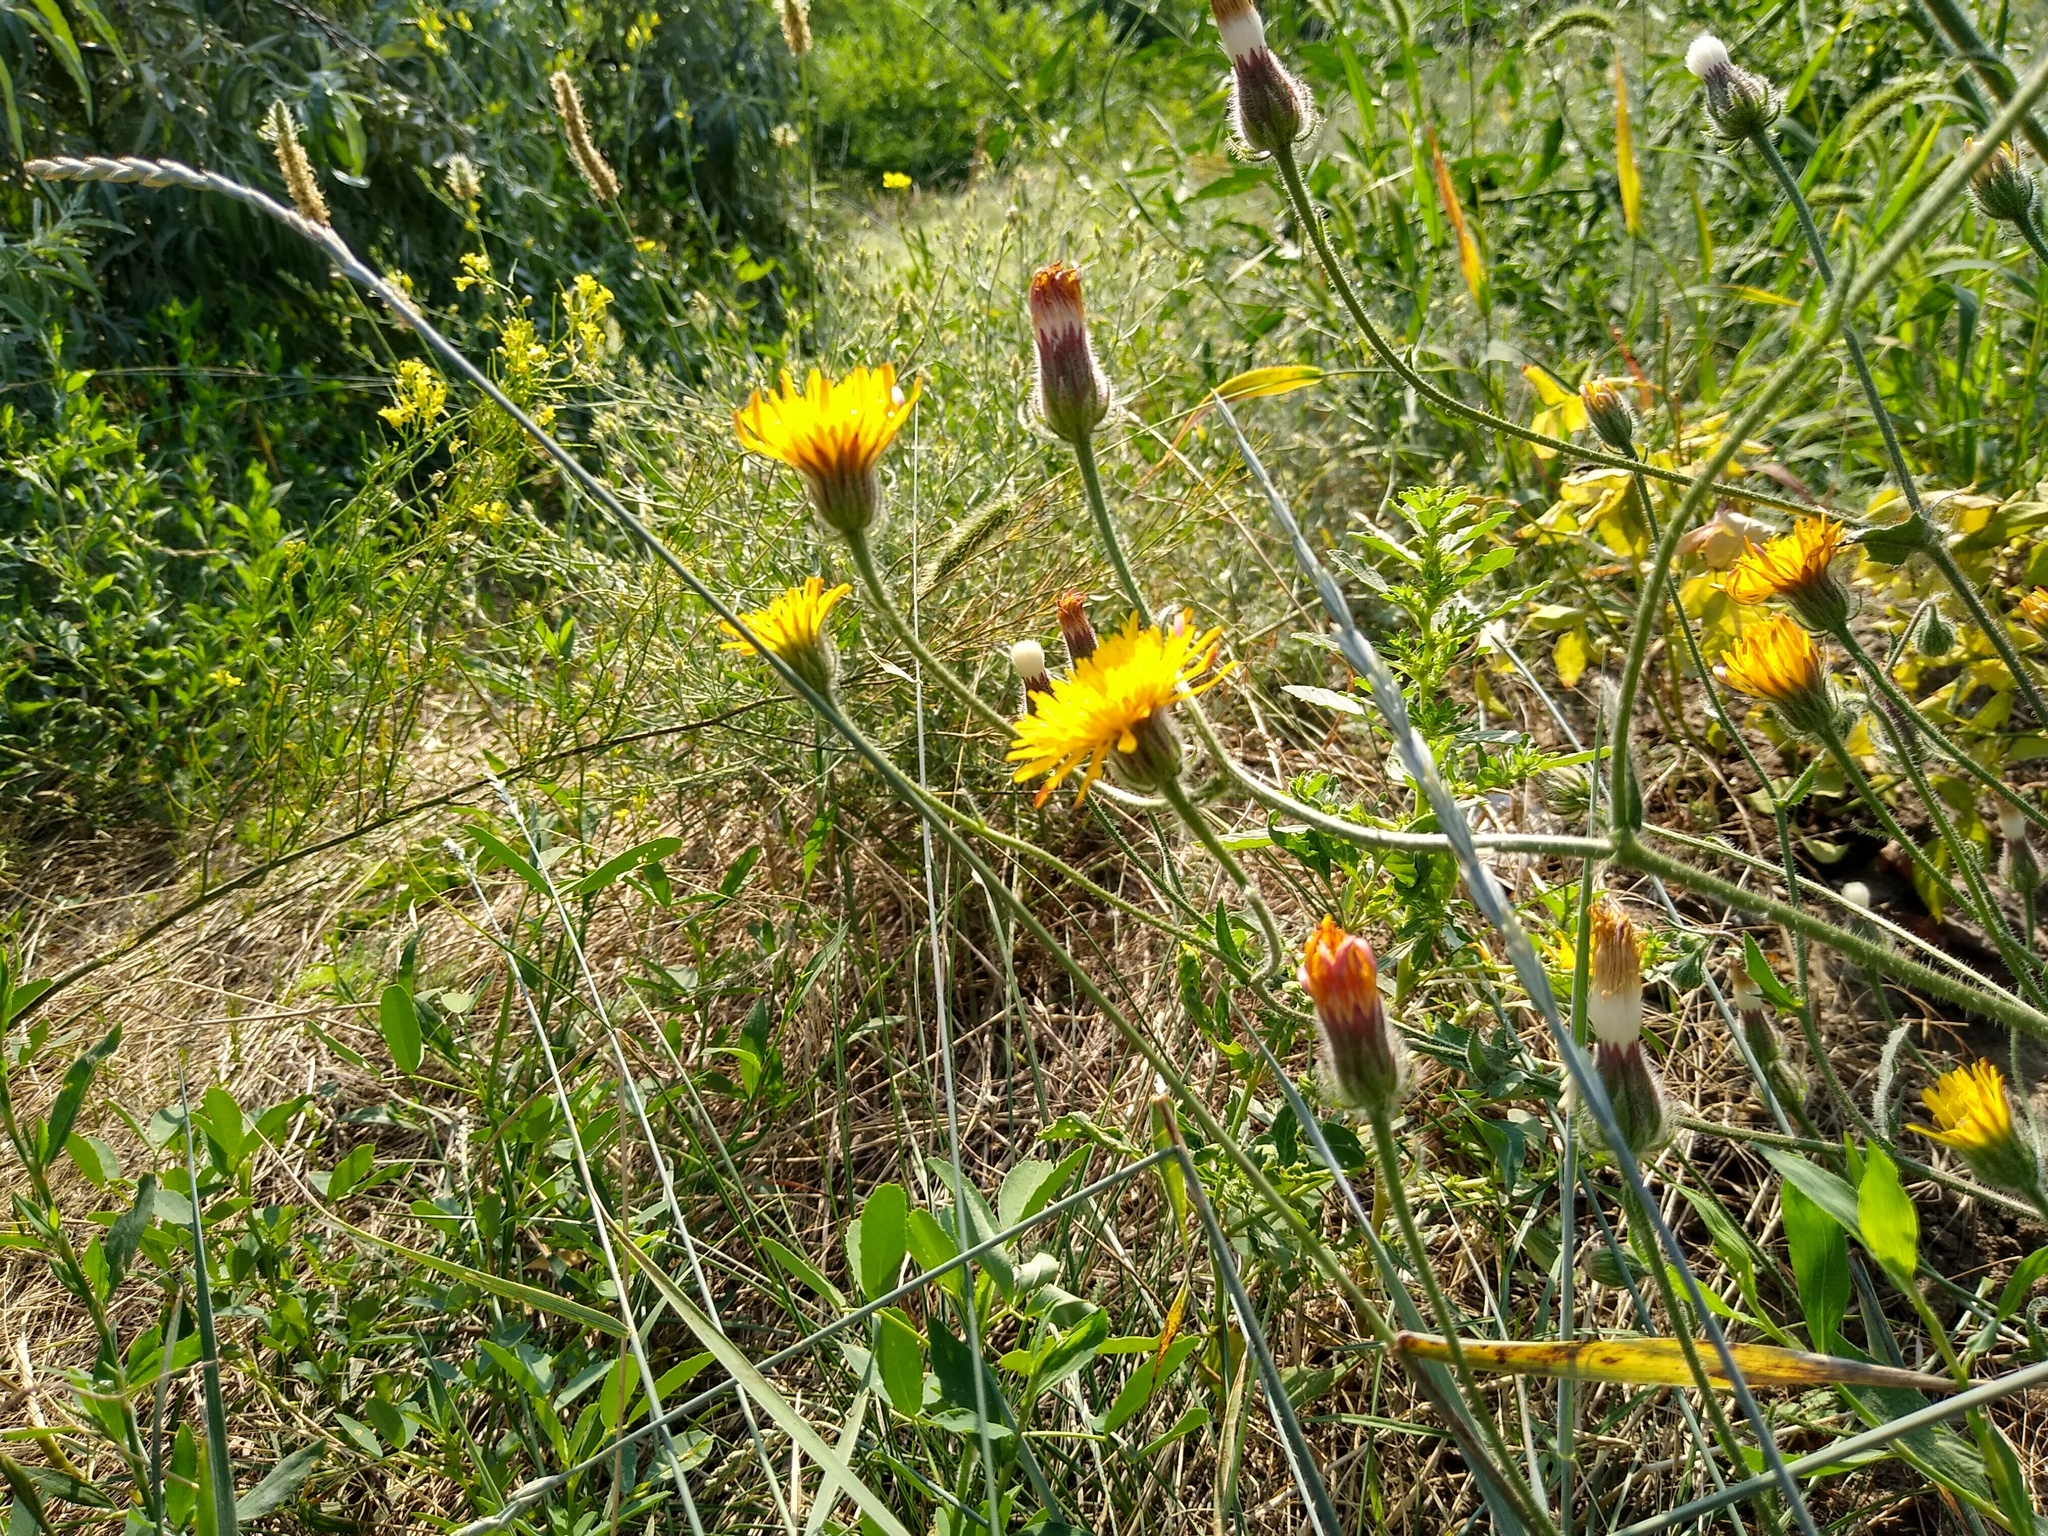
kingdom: Plantae
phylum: Tracheophyta
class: Magnoliopsida
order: Asterales
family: Asteraceae
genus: Crepis
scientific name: Crepis foetida
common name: Stinking hawk's-beard
